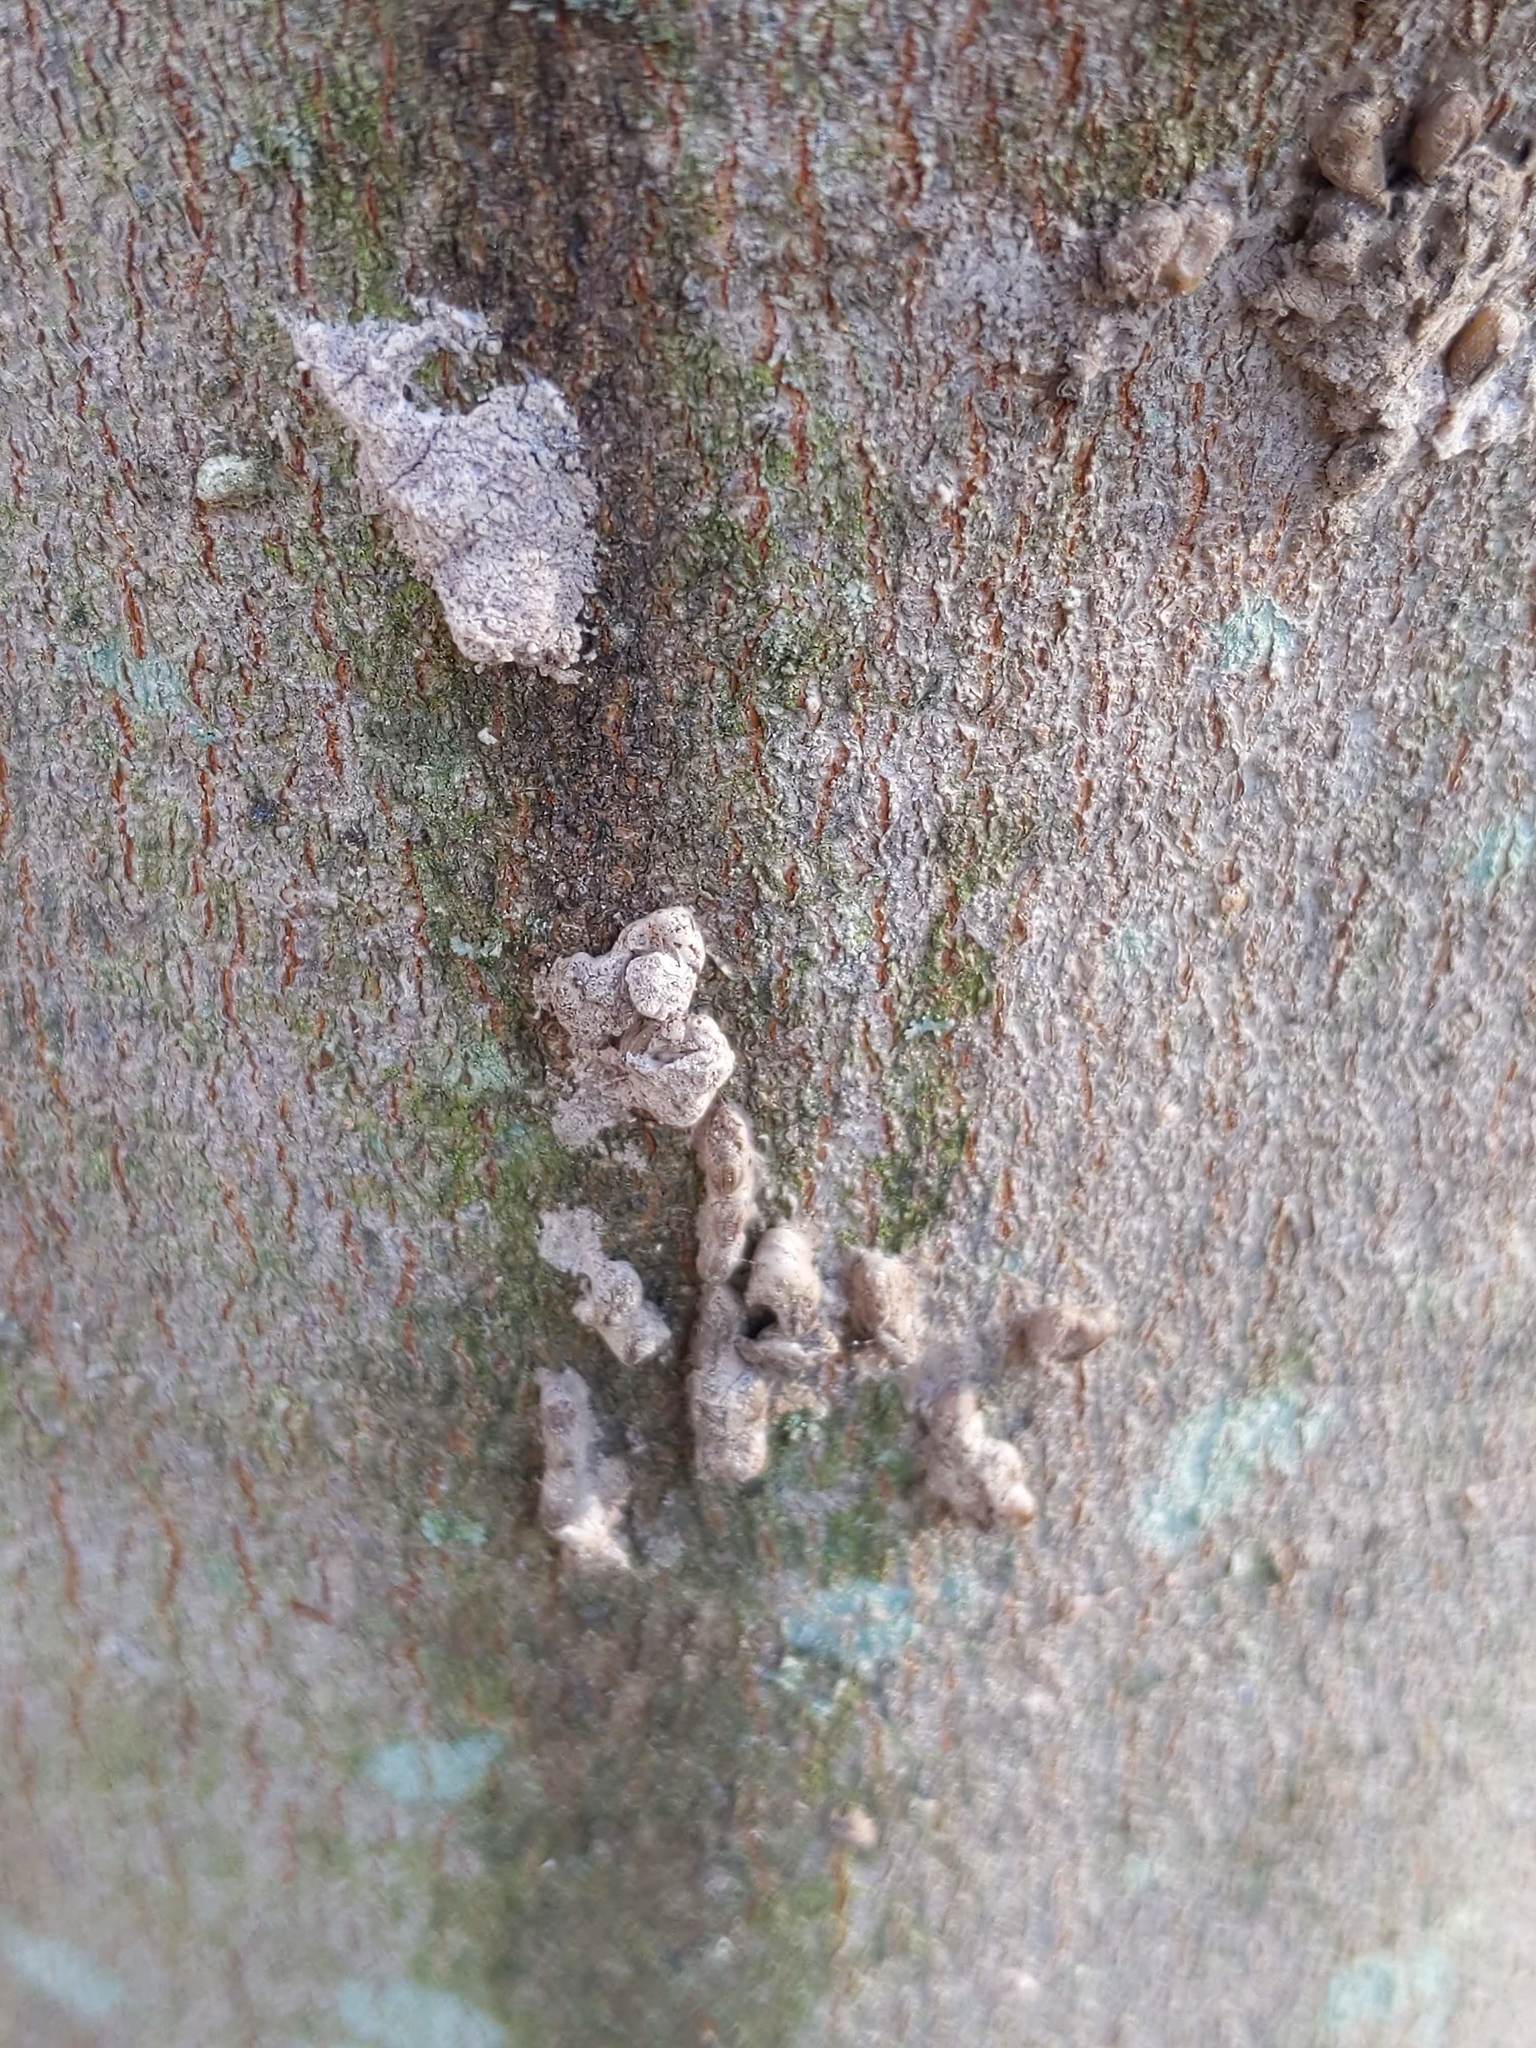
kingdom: Animalia
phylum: Arthropoda
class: Insecta
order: Hemiptera
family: Fulgoridae
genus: Lycorma
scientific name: Lycorma delicatula
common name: Spotted lanternfly
